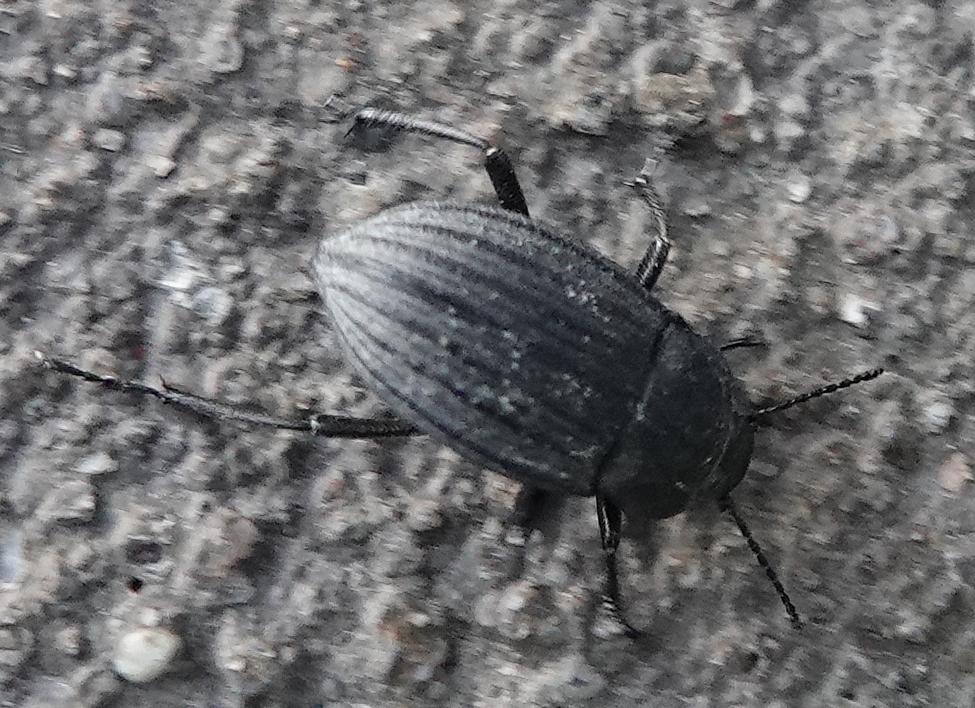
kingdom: Animalia
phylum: Arthropoda
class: Insecta
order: Coleoptera
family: Tenebrionidae
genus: Eleodes
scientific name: Eleodes tricostata
